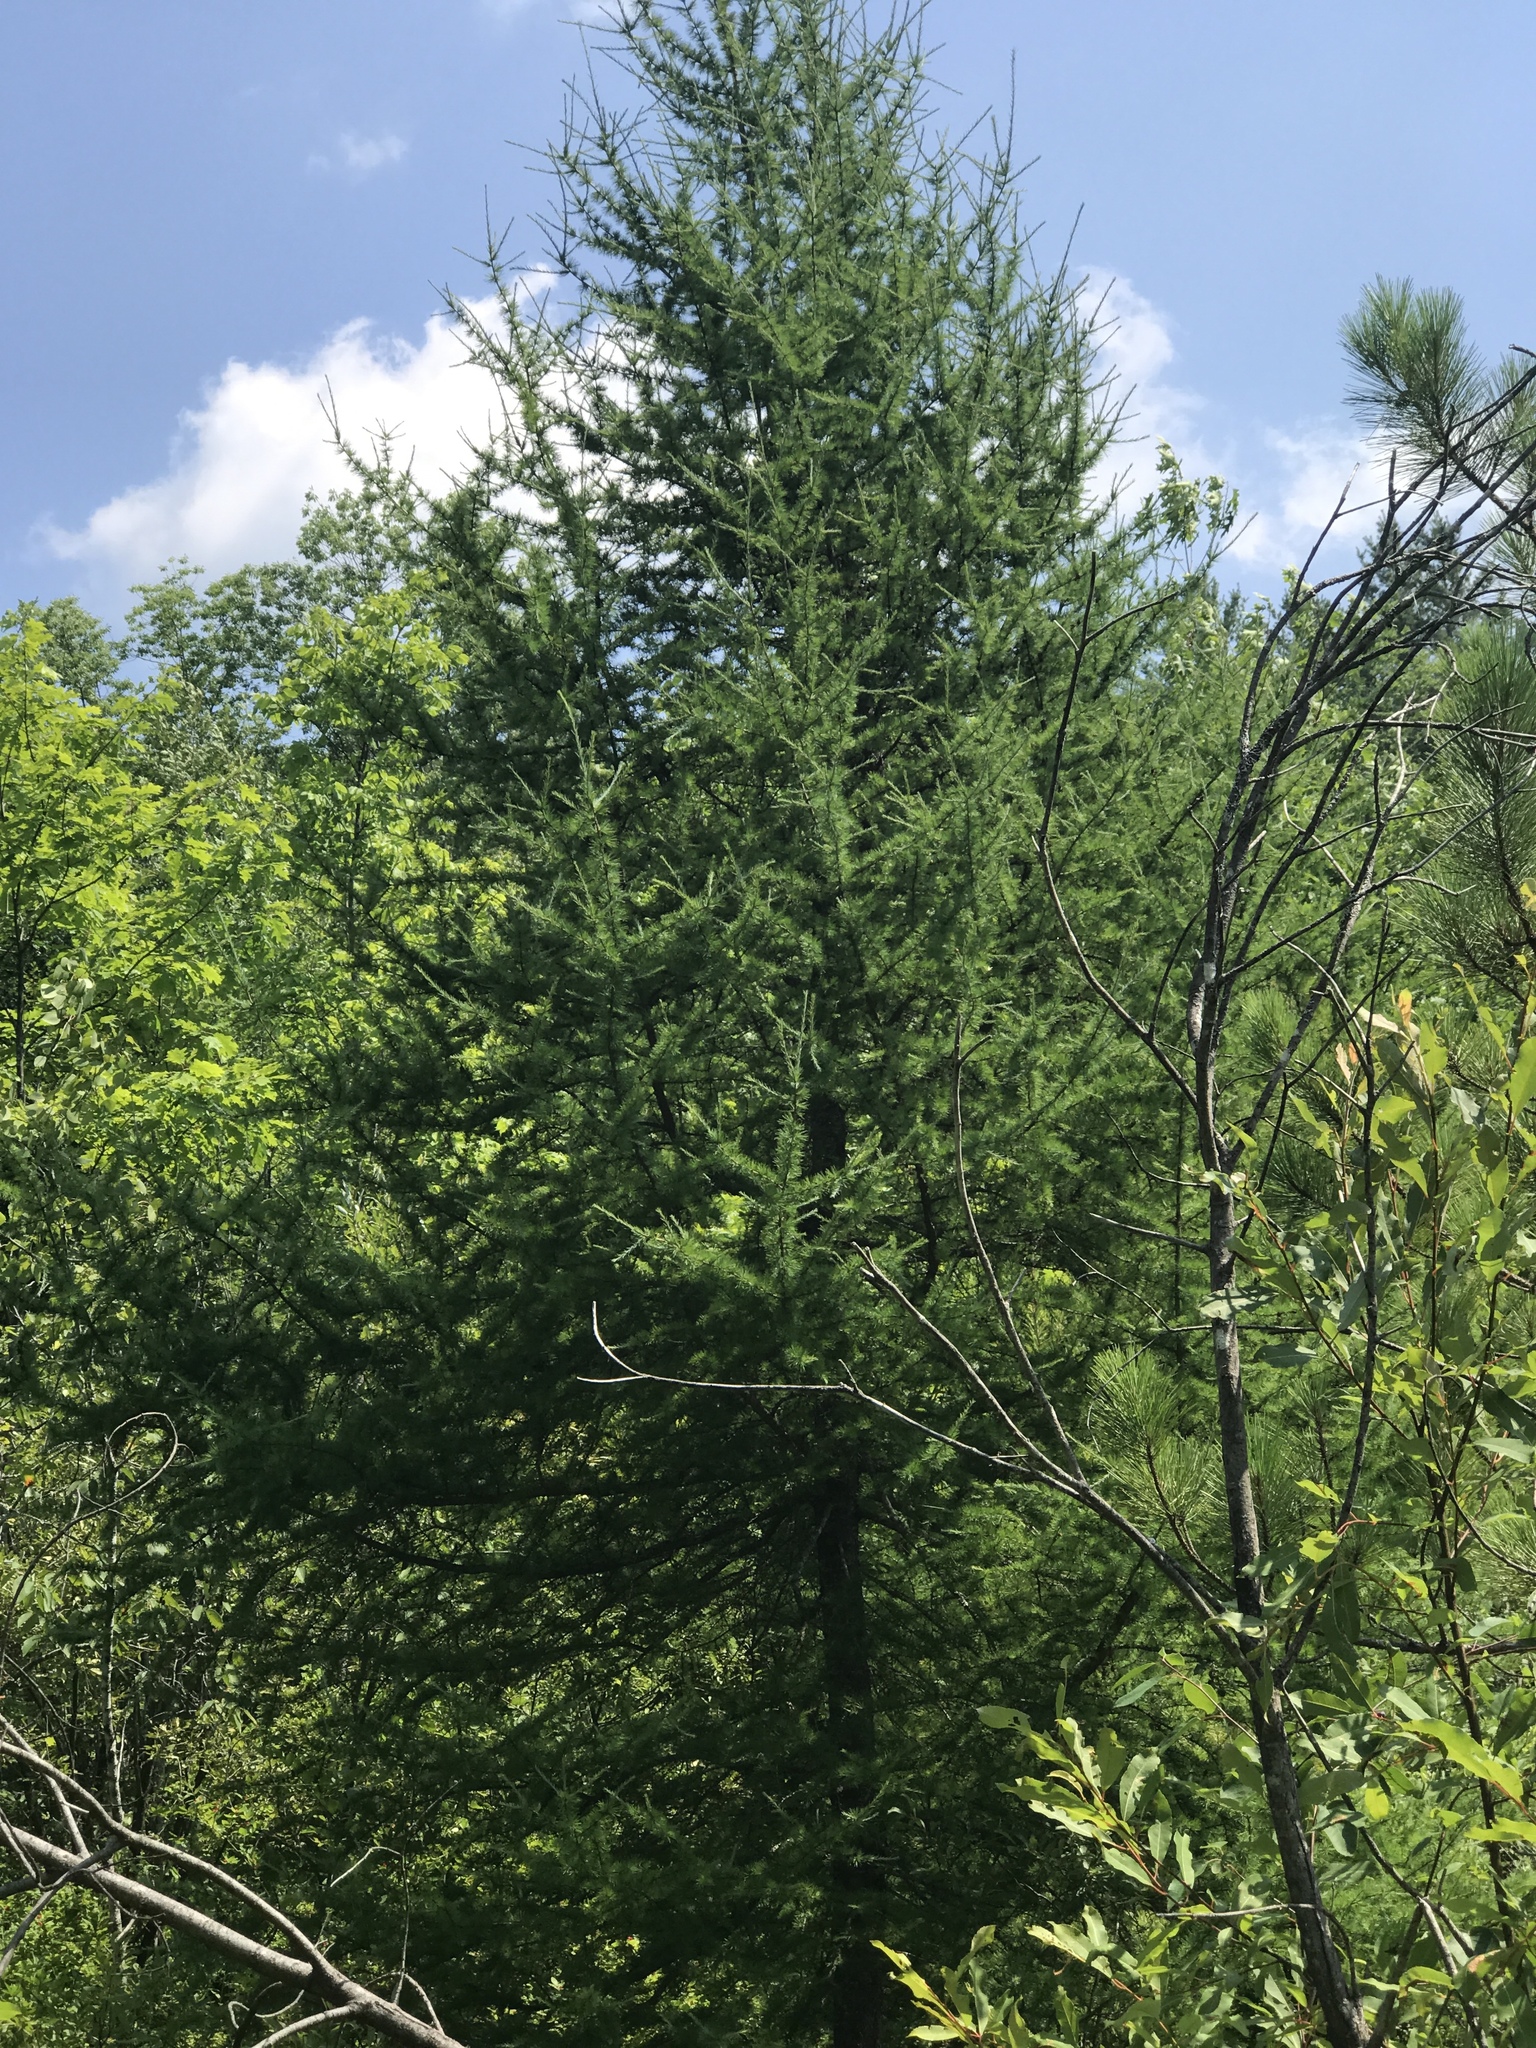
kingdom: Plantae
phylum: Tracheophyta
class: Pinopsida
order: Pinales
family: Pinaceae
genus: Larix
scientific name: Larix laricina
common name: American larch
